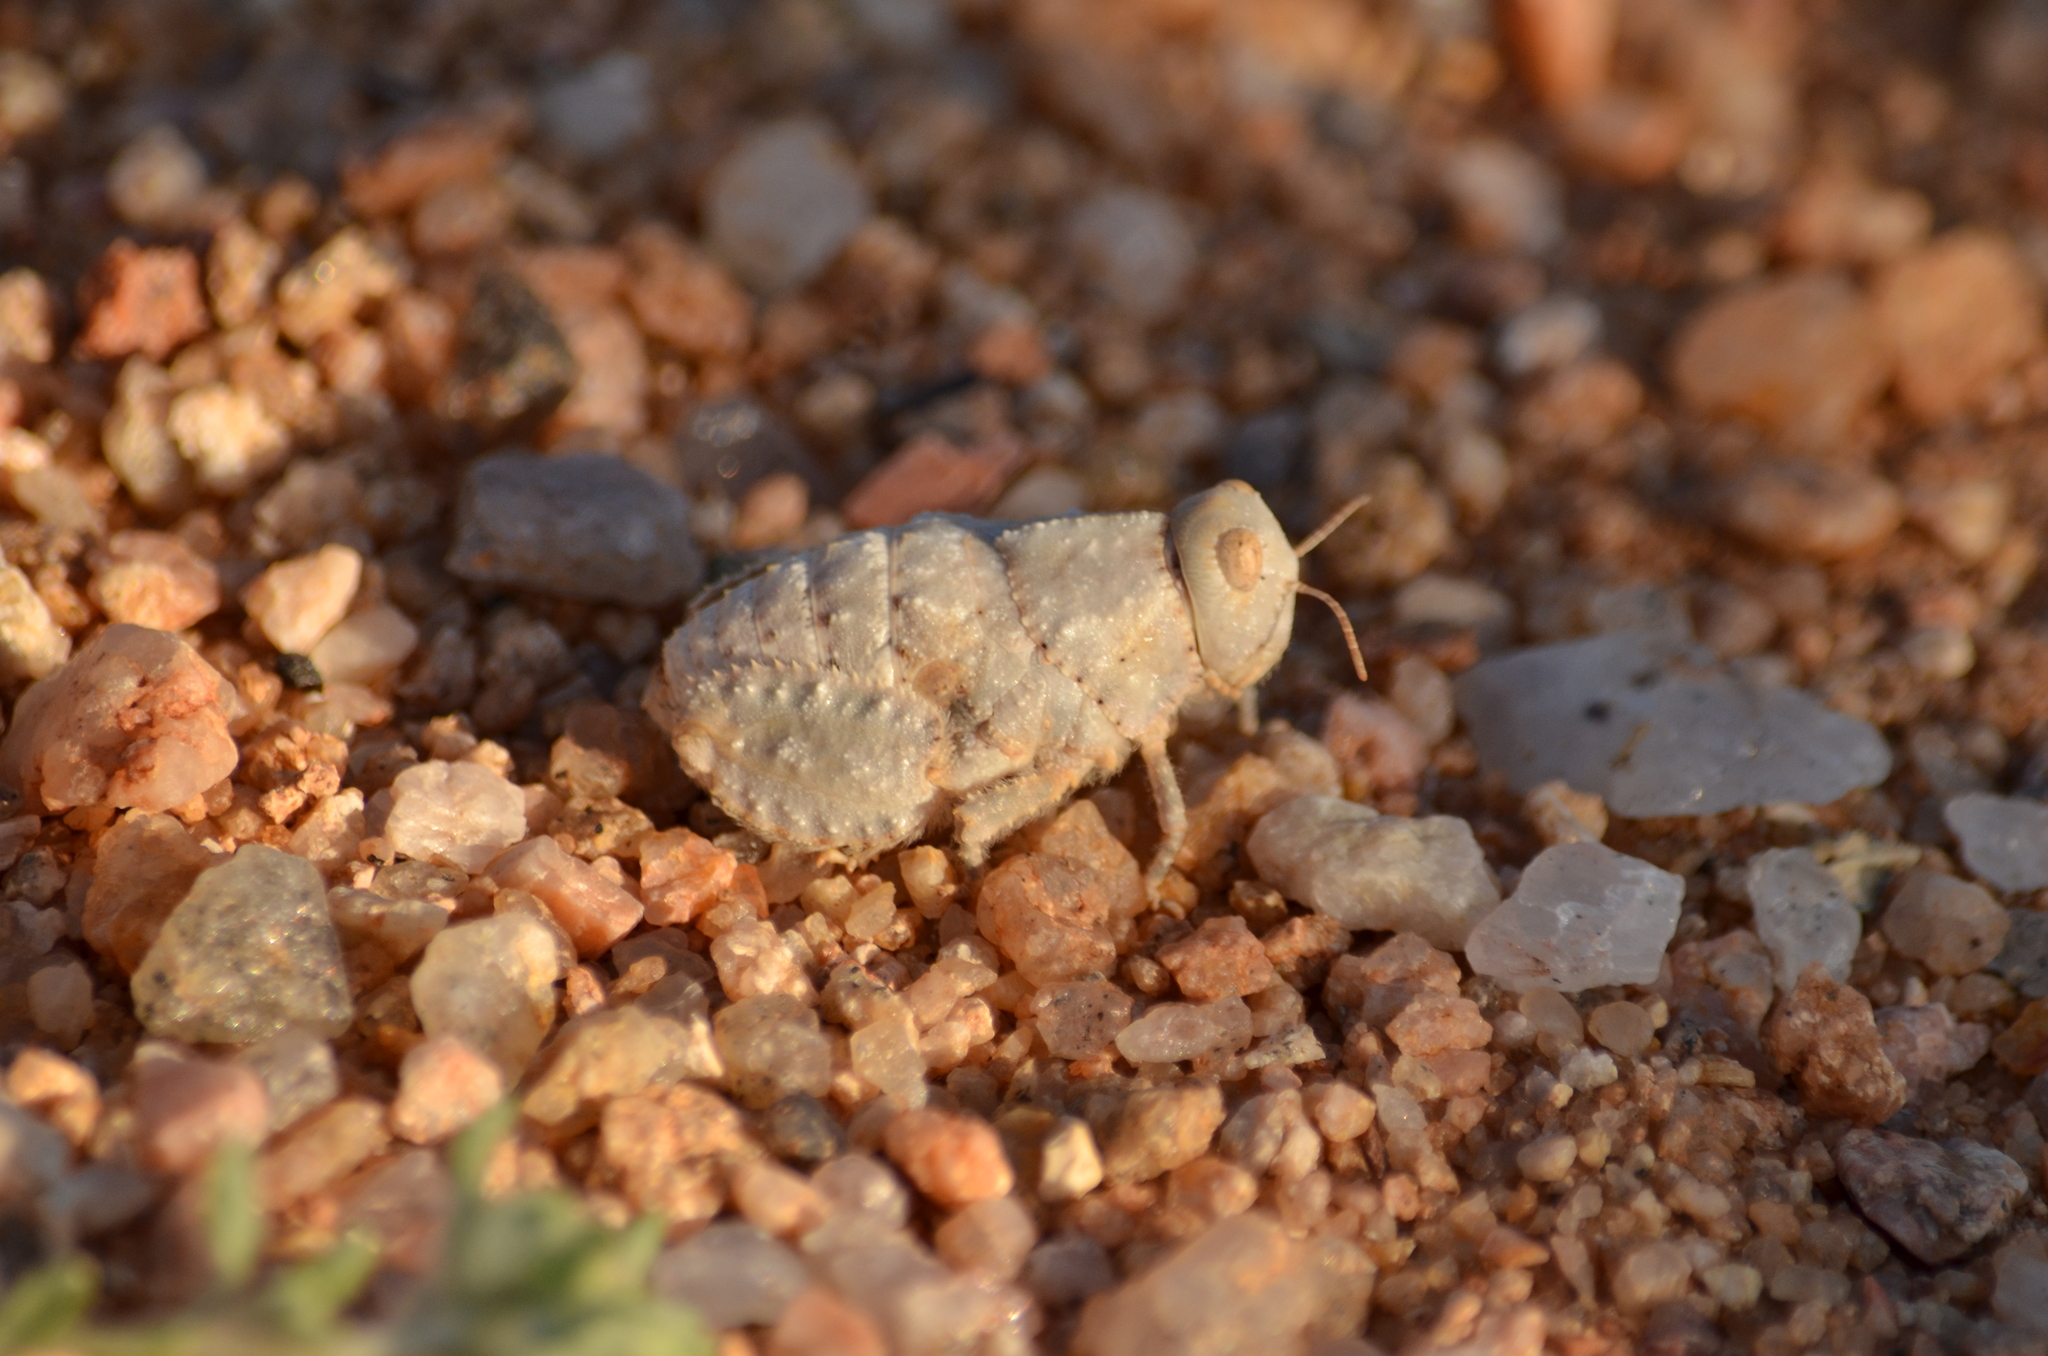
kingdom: Animalia
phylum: Arthropoda
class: Insecta
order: Orthoptera
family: Pamphagidae
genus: Trachypetrella
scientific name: Trachypetrella anderssonii
